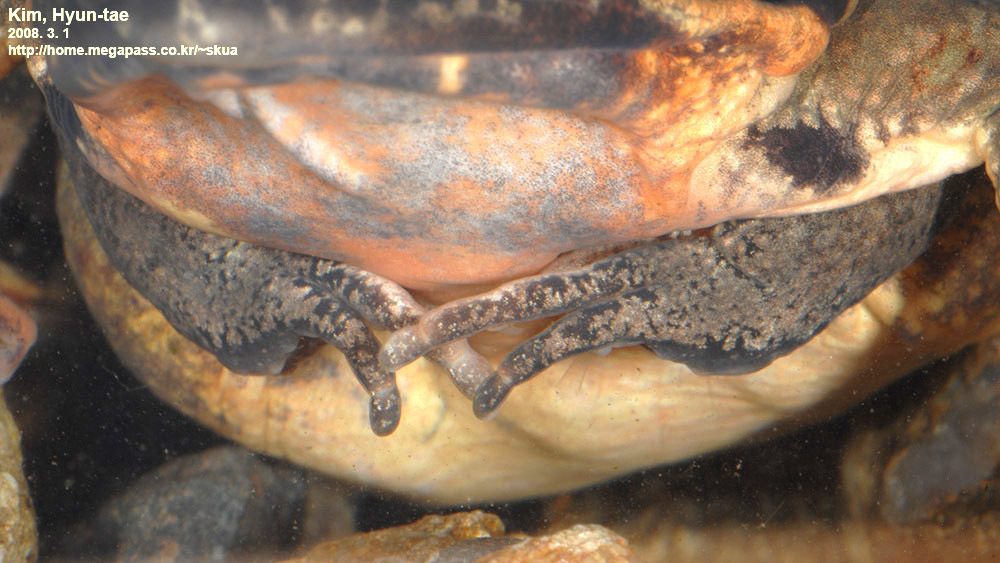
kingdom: Animalia
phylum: Chordata
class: Amphibia
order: Anura
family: Ranidae
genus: Rana
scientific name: Rana uenoi
